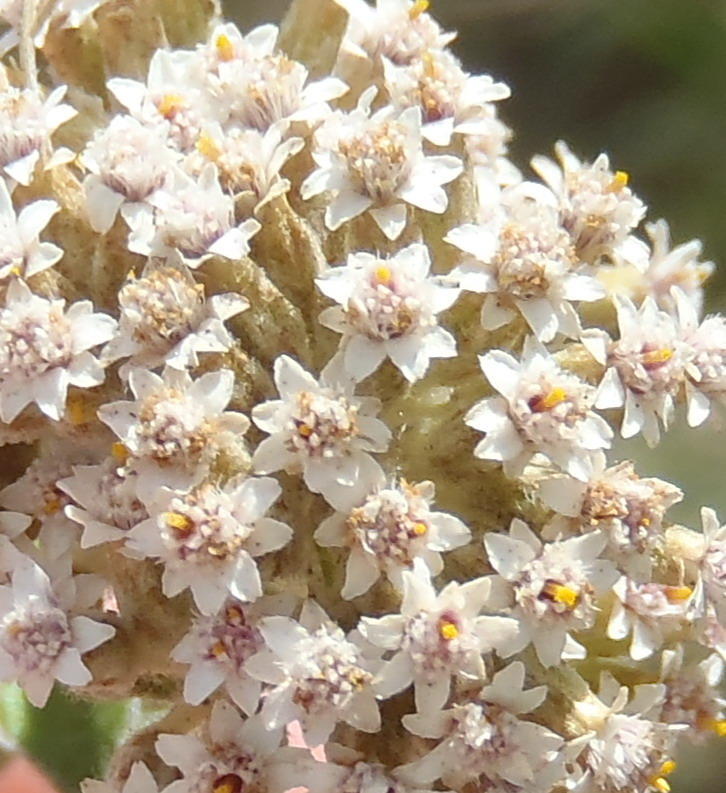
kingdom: Plantae
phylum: Tracheophyta
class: Magnoliopsida
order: Asterales
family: Asteraceae
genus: Plecostachys
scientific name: Plecostachys serpyllifolia
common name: Petite licorice
